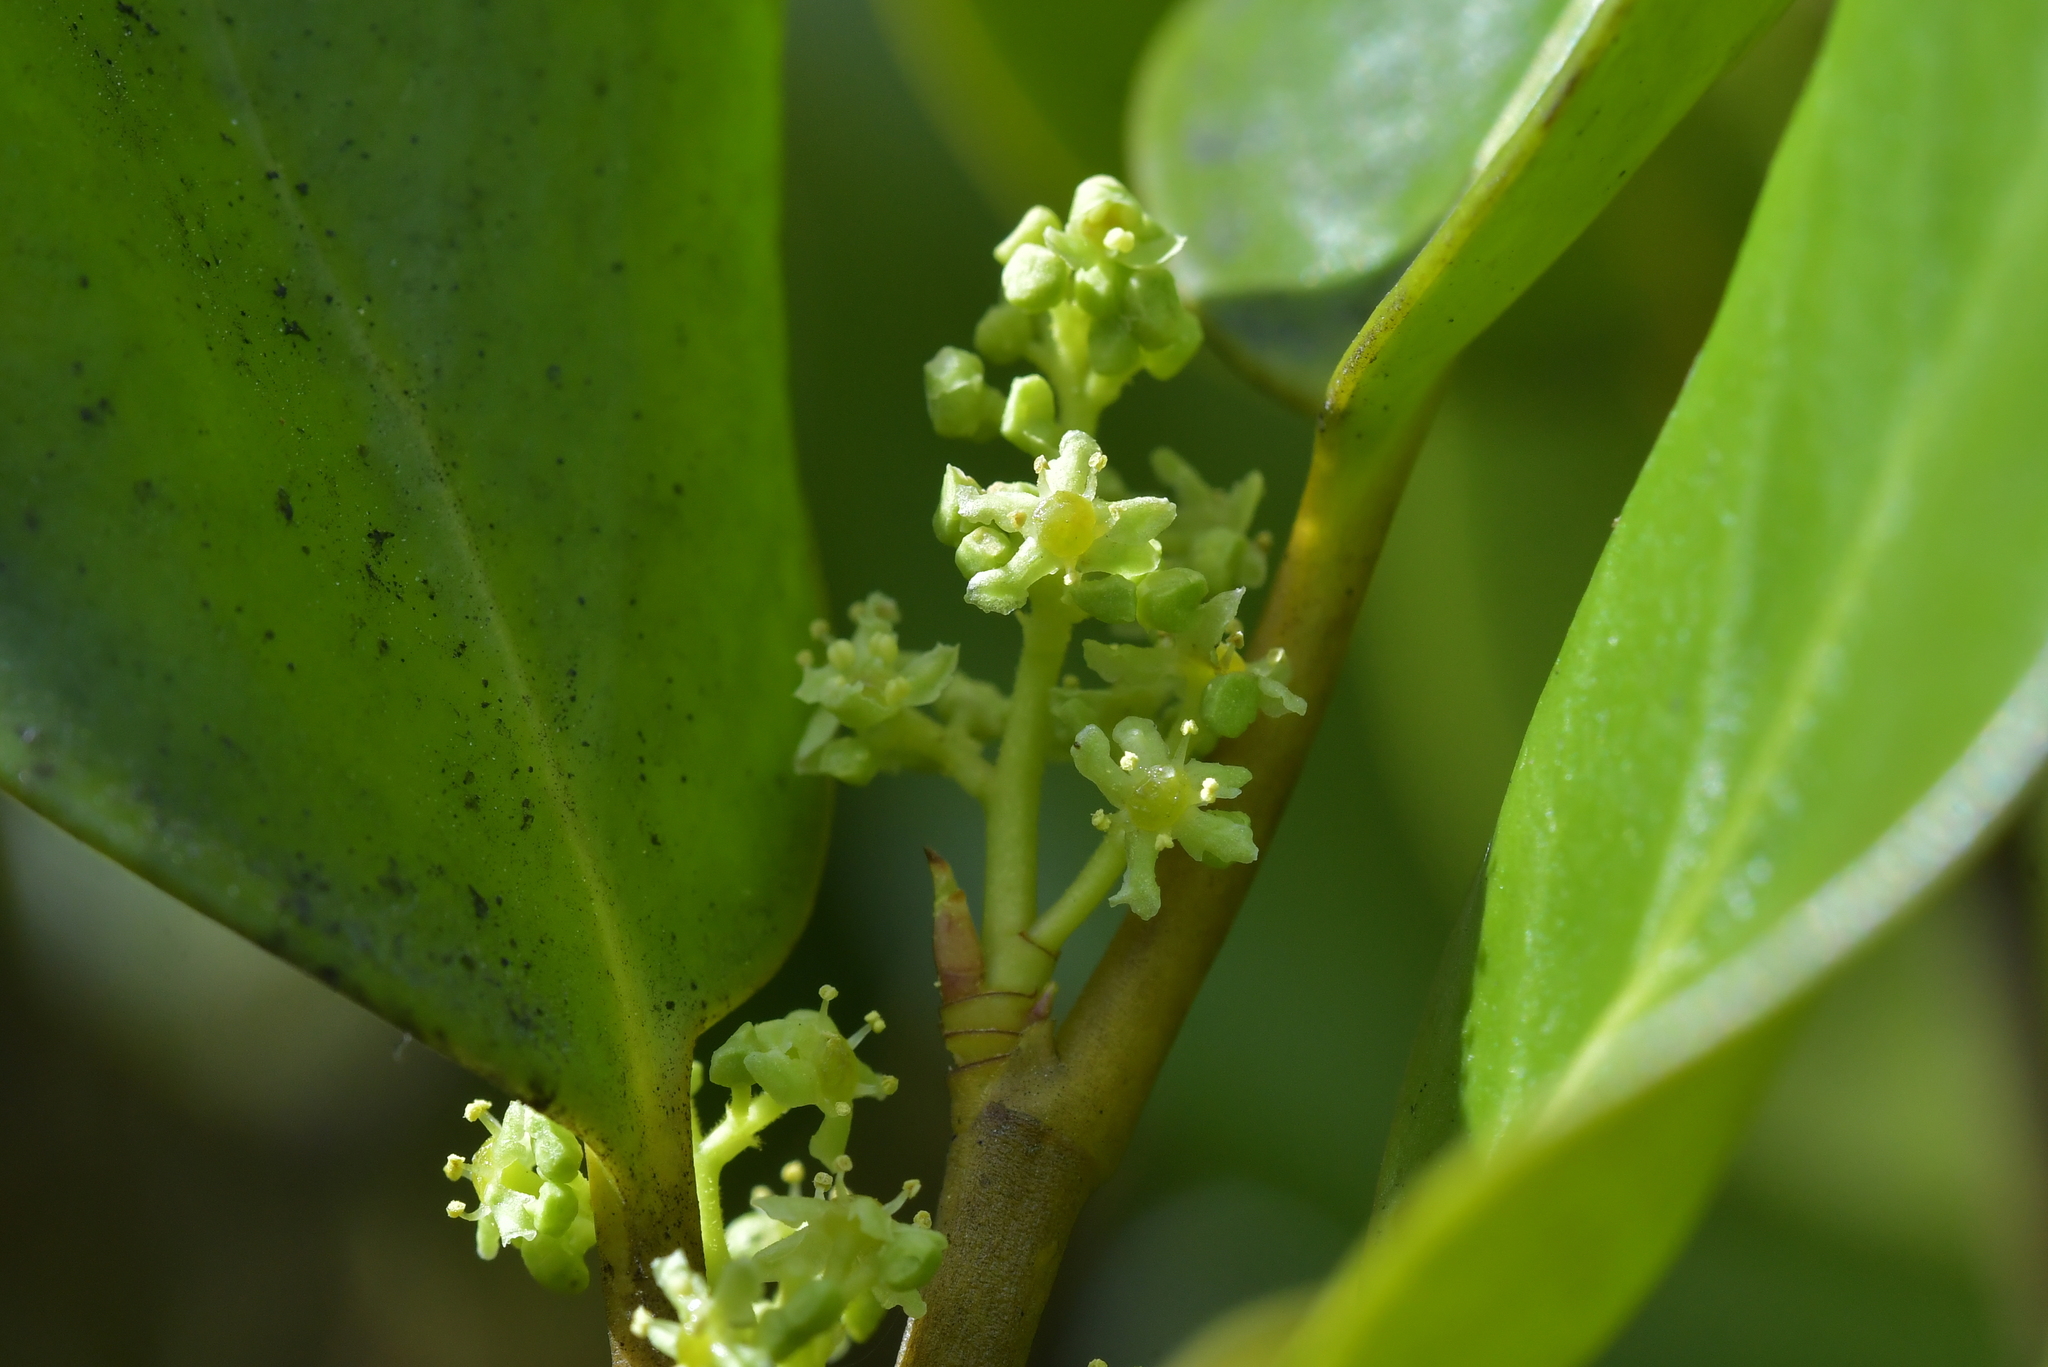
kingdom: Plantae
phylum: Tracheophyta
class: Magnoliopsida
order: Apiales
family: Griseliniaceae
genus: Griselinia
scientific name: Griselinia littoralis
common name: New zealand broadleaf
